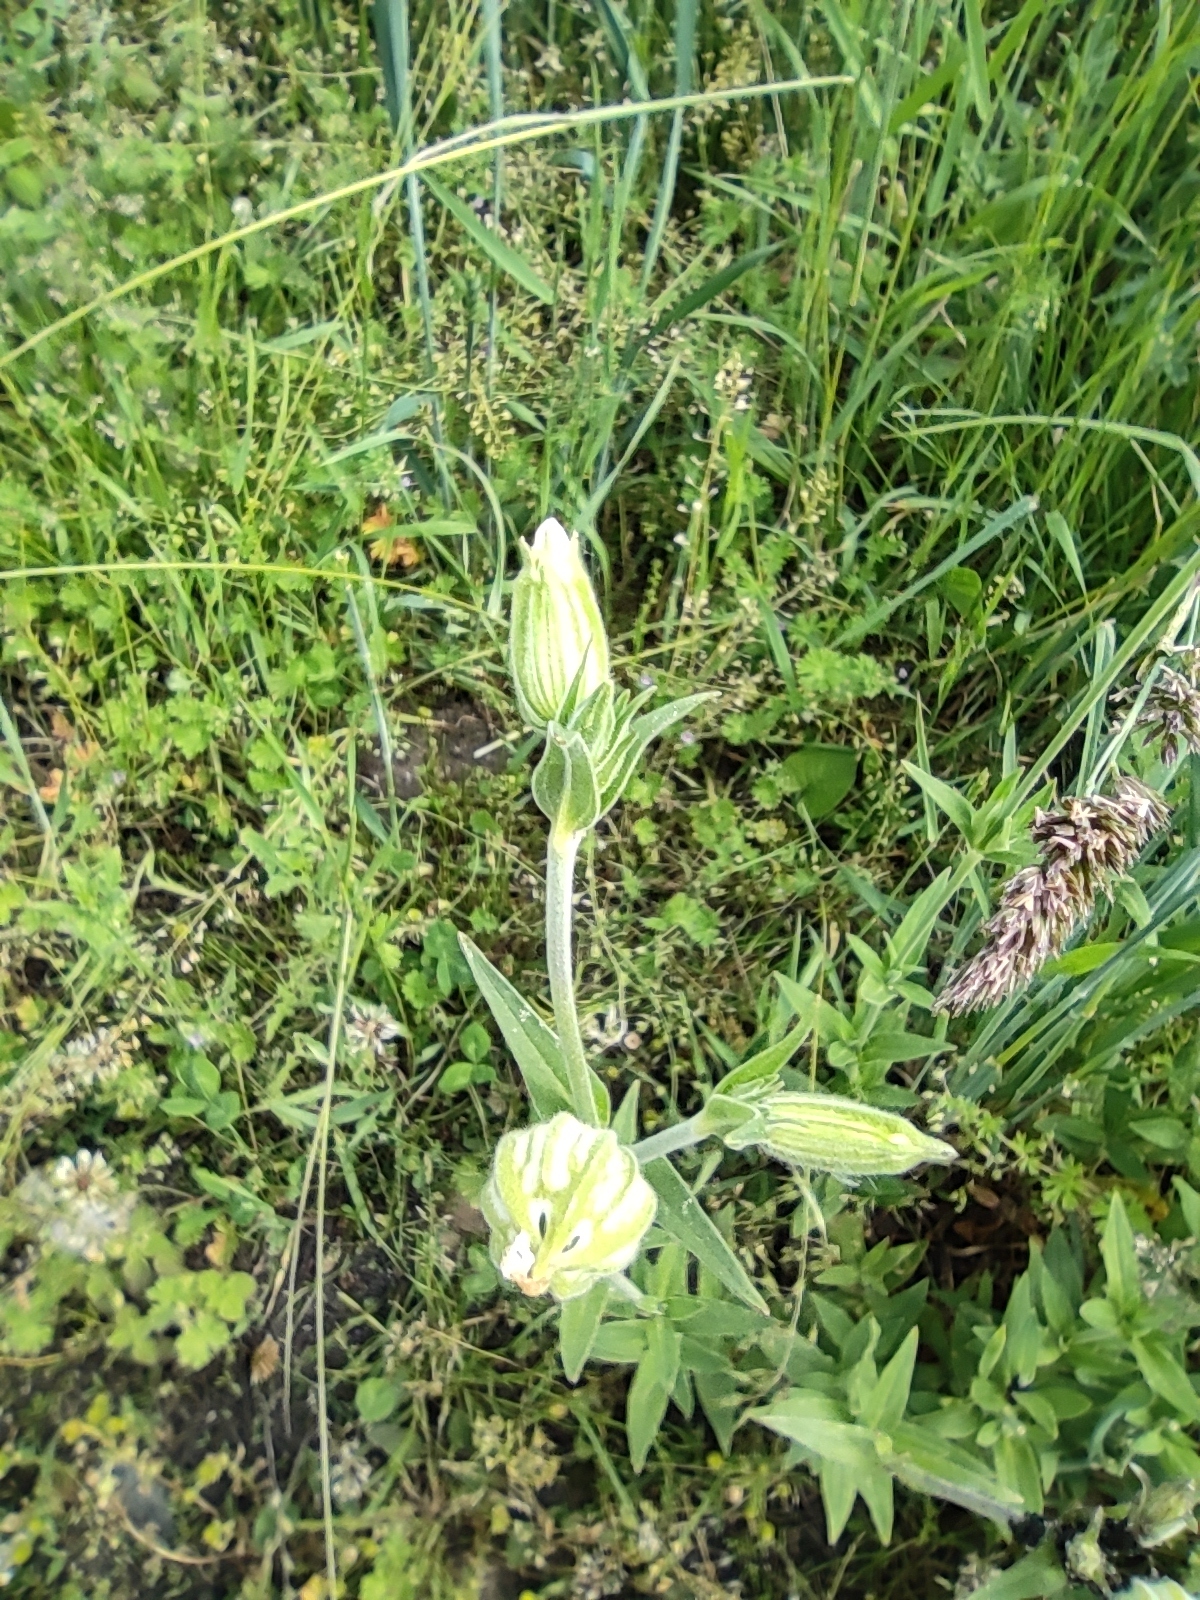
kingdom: Plantae
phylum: Tracheophyta
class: Magnoliopsida
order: Caryophyllales
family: Caryophyllaceae
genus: Silene
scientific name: Silene latifolia
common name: White campion
